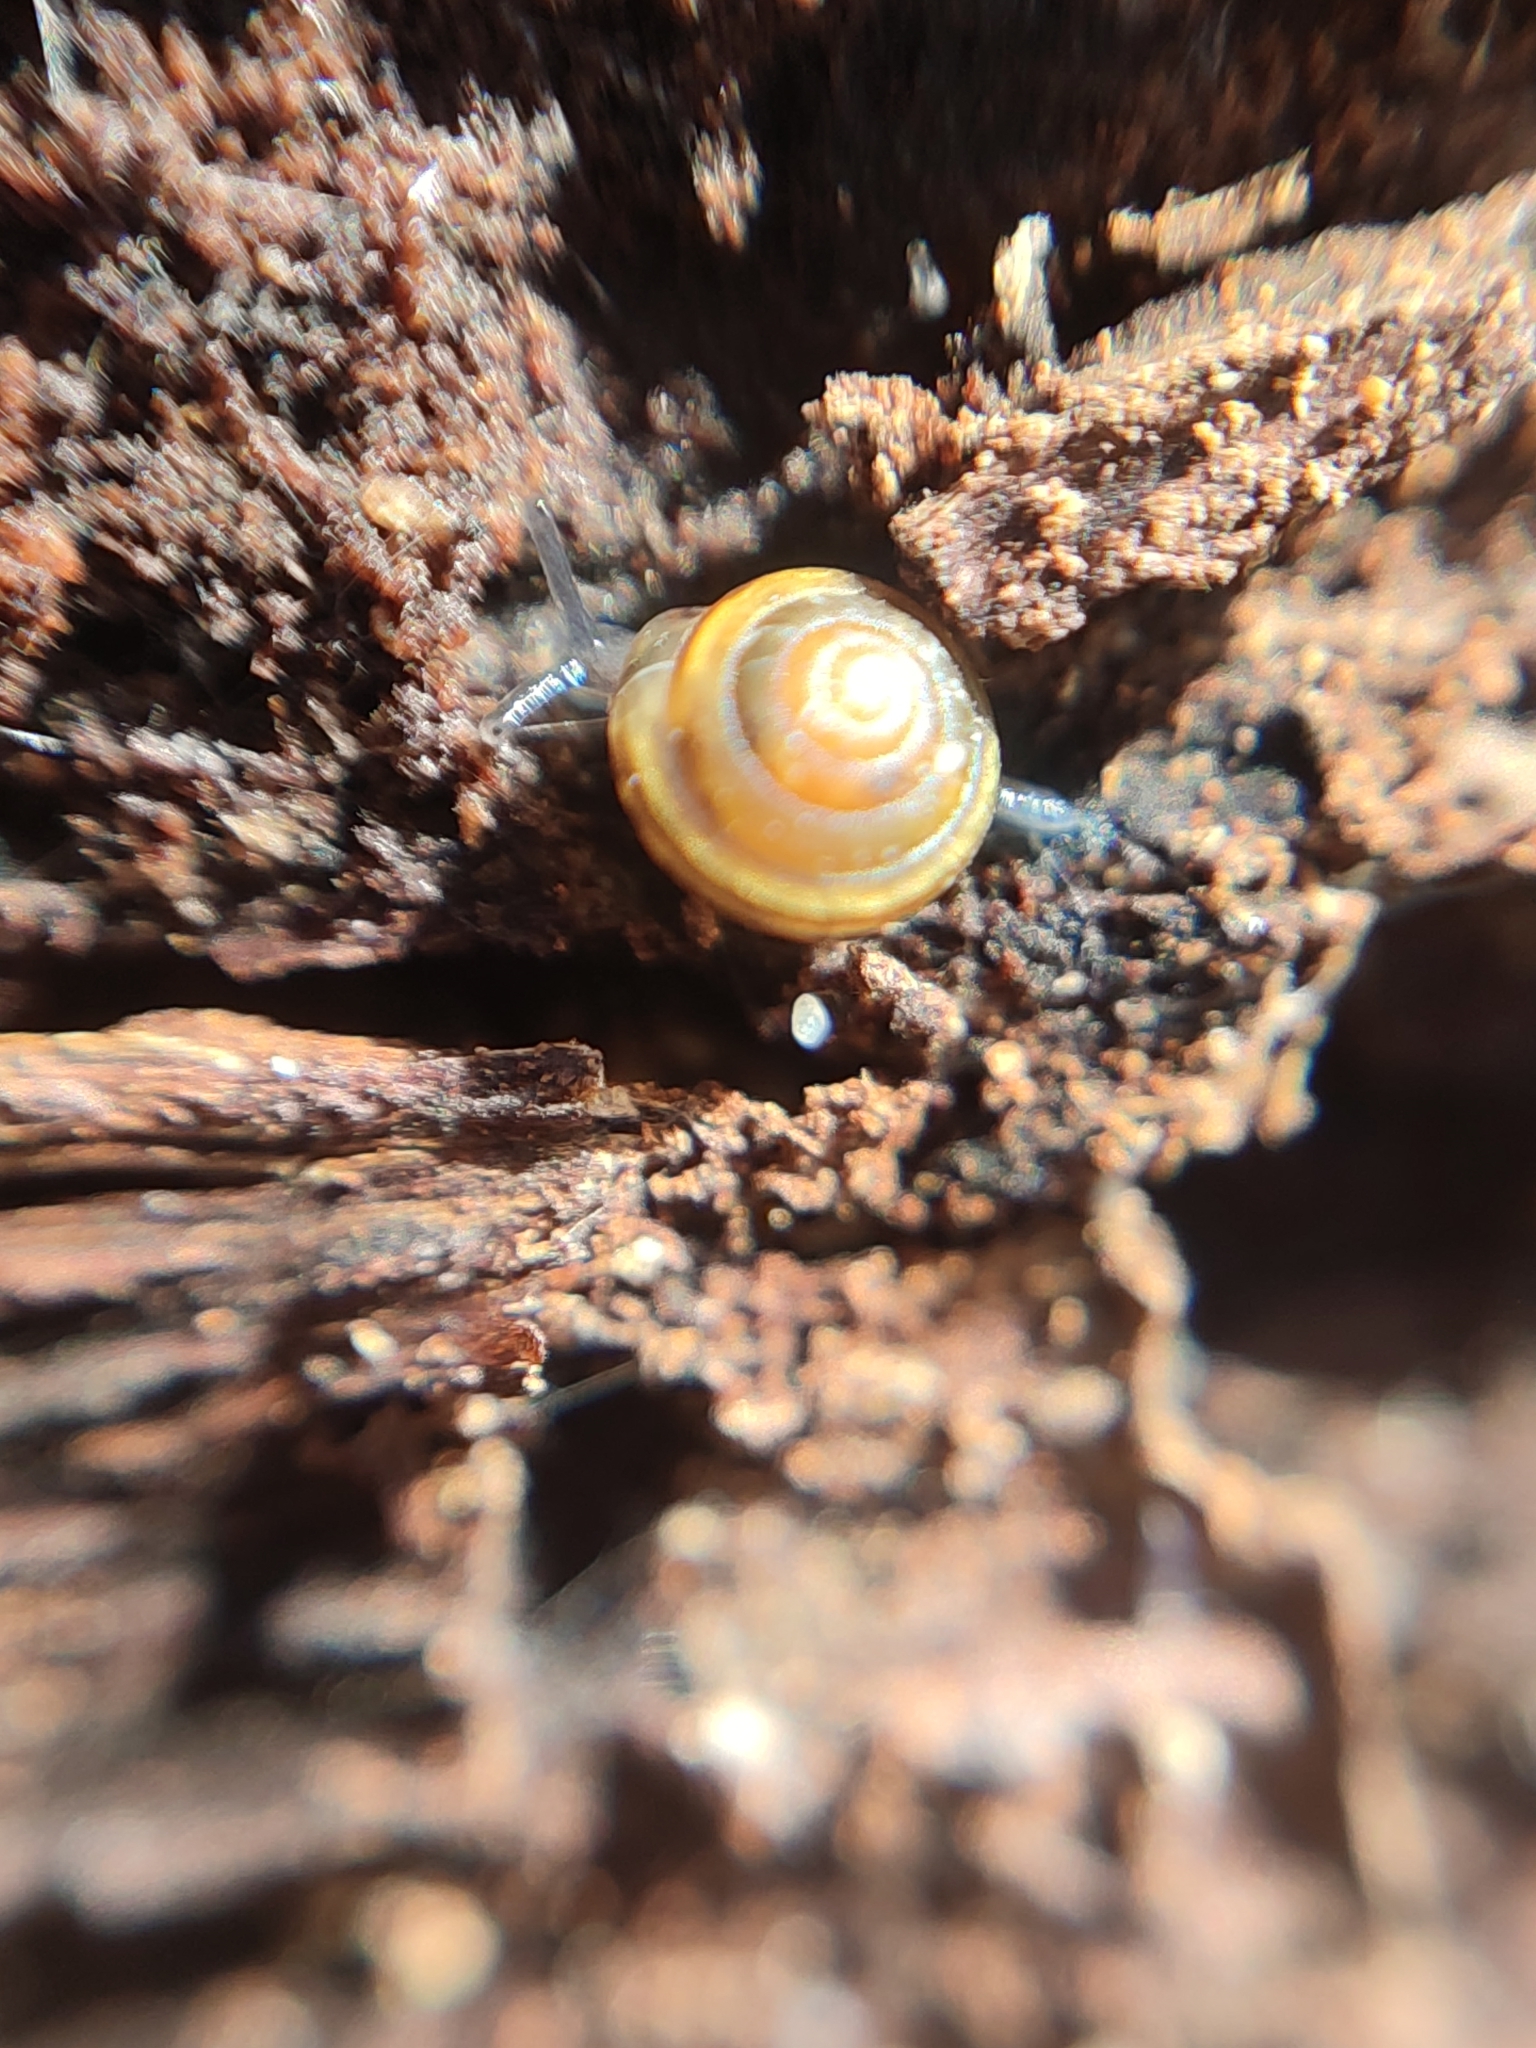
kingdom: Animalia
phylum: Mollusca
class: Gastropoda
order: Stylommatophora
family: Euconulidae
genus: Euconulus
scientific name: Euconulus fulvus
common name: Tawny glass snail
